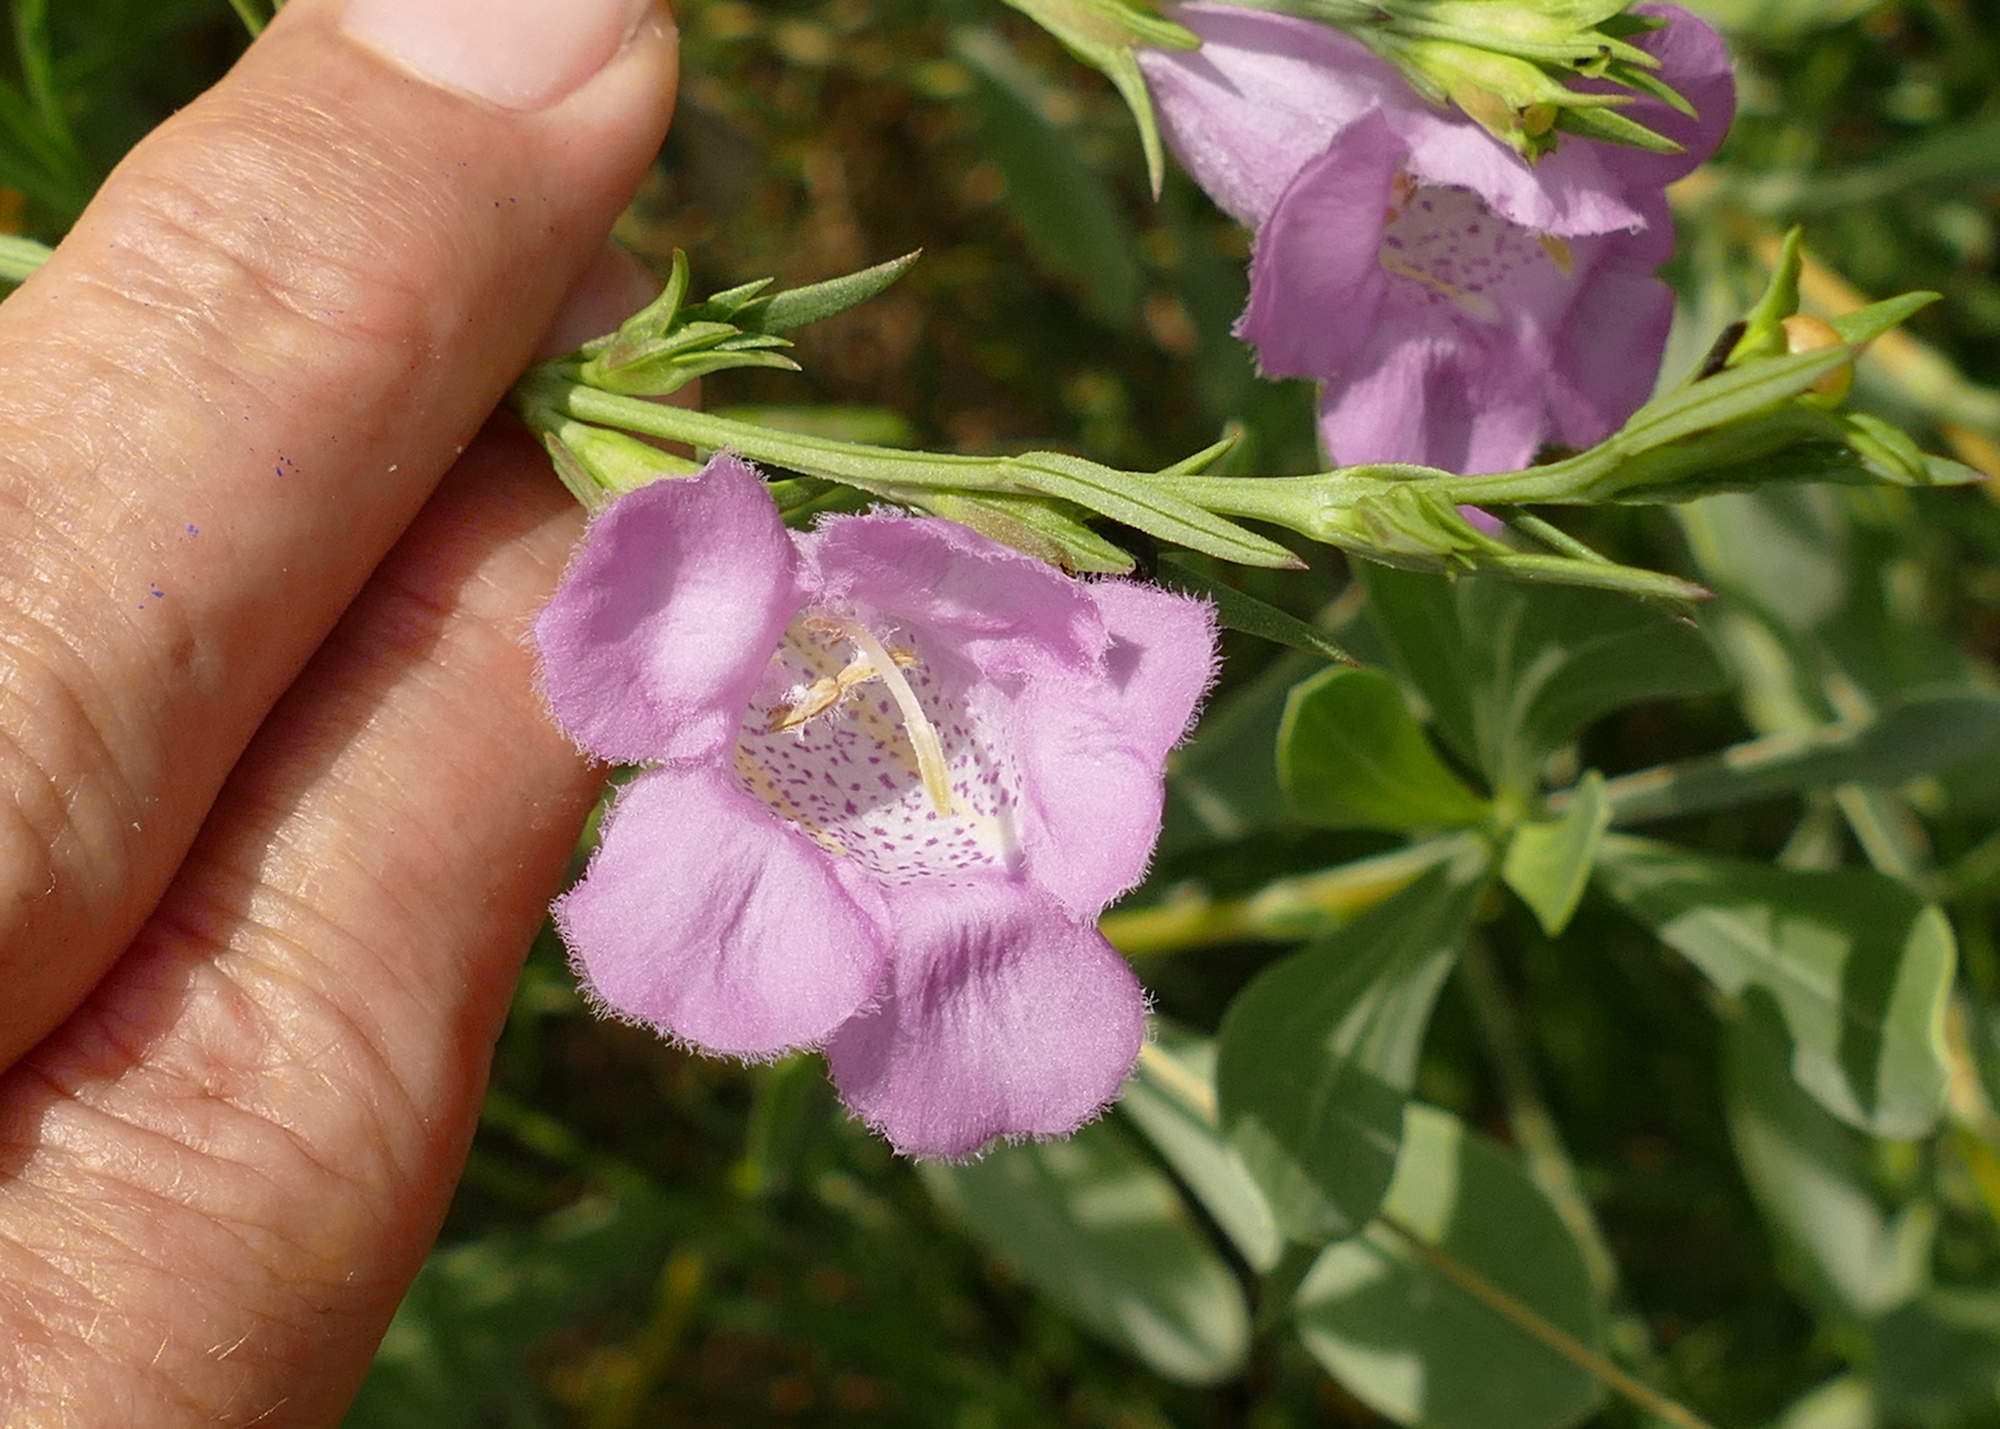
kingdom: Plantae
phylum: Tracheophyta
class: Magnoliopsida
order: Lamiales
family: Orobanchaceae
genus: Agalinis
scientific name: Agalinis heterophylla
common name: Prairie agalinis
